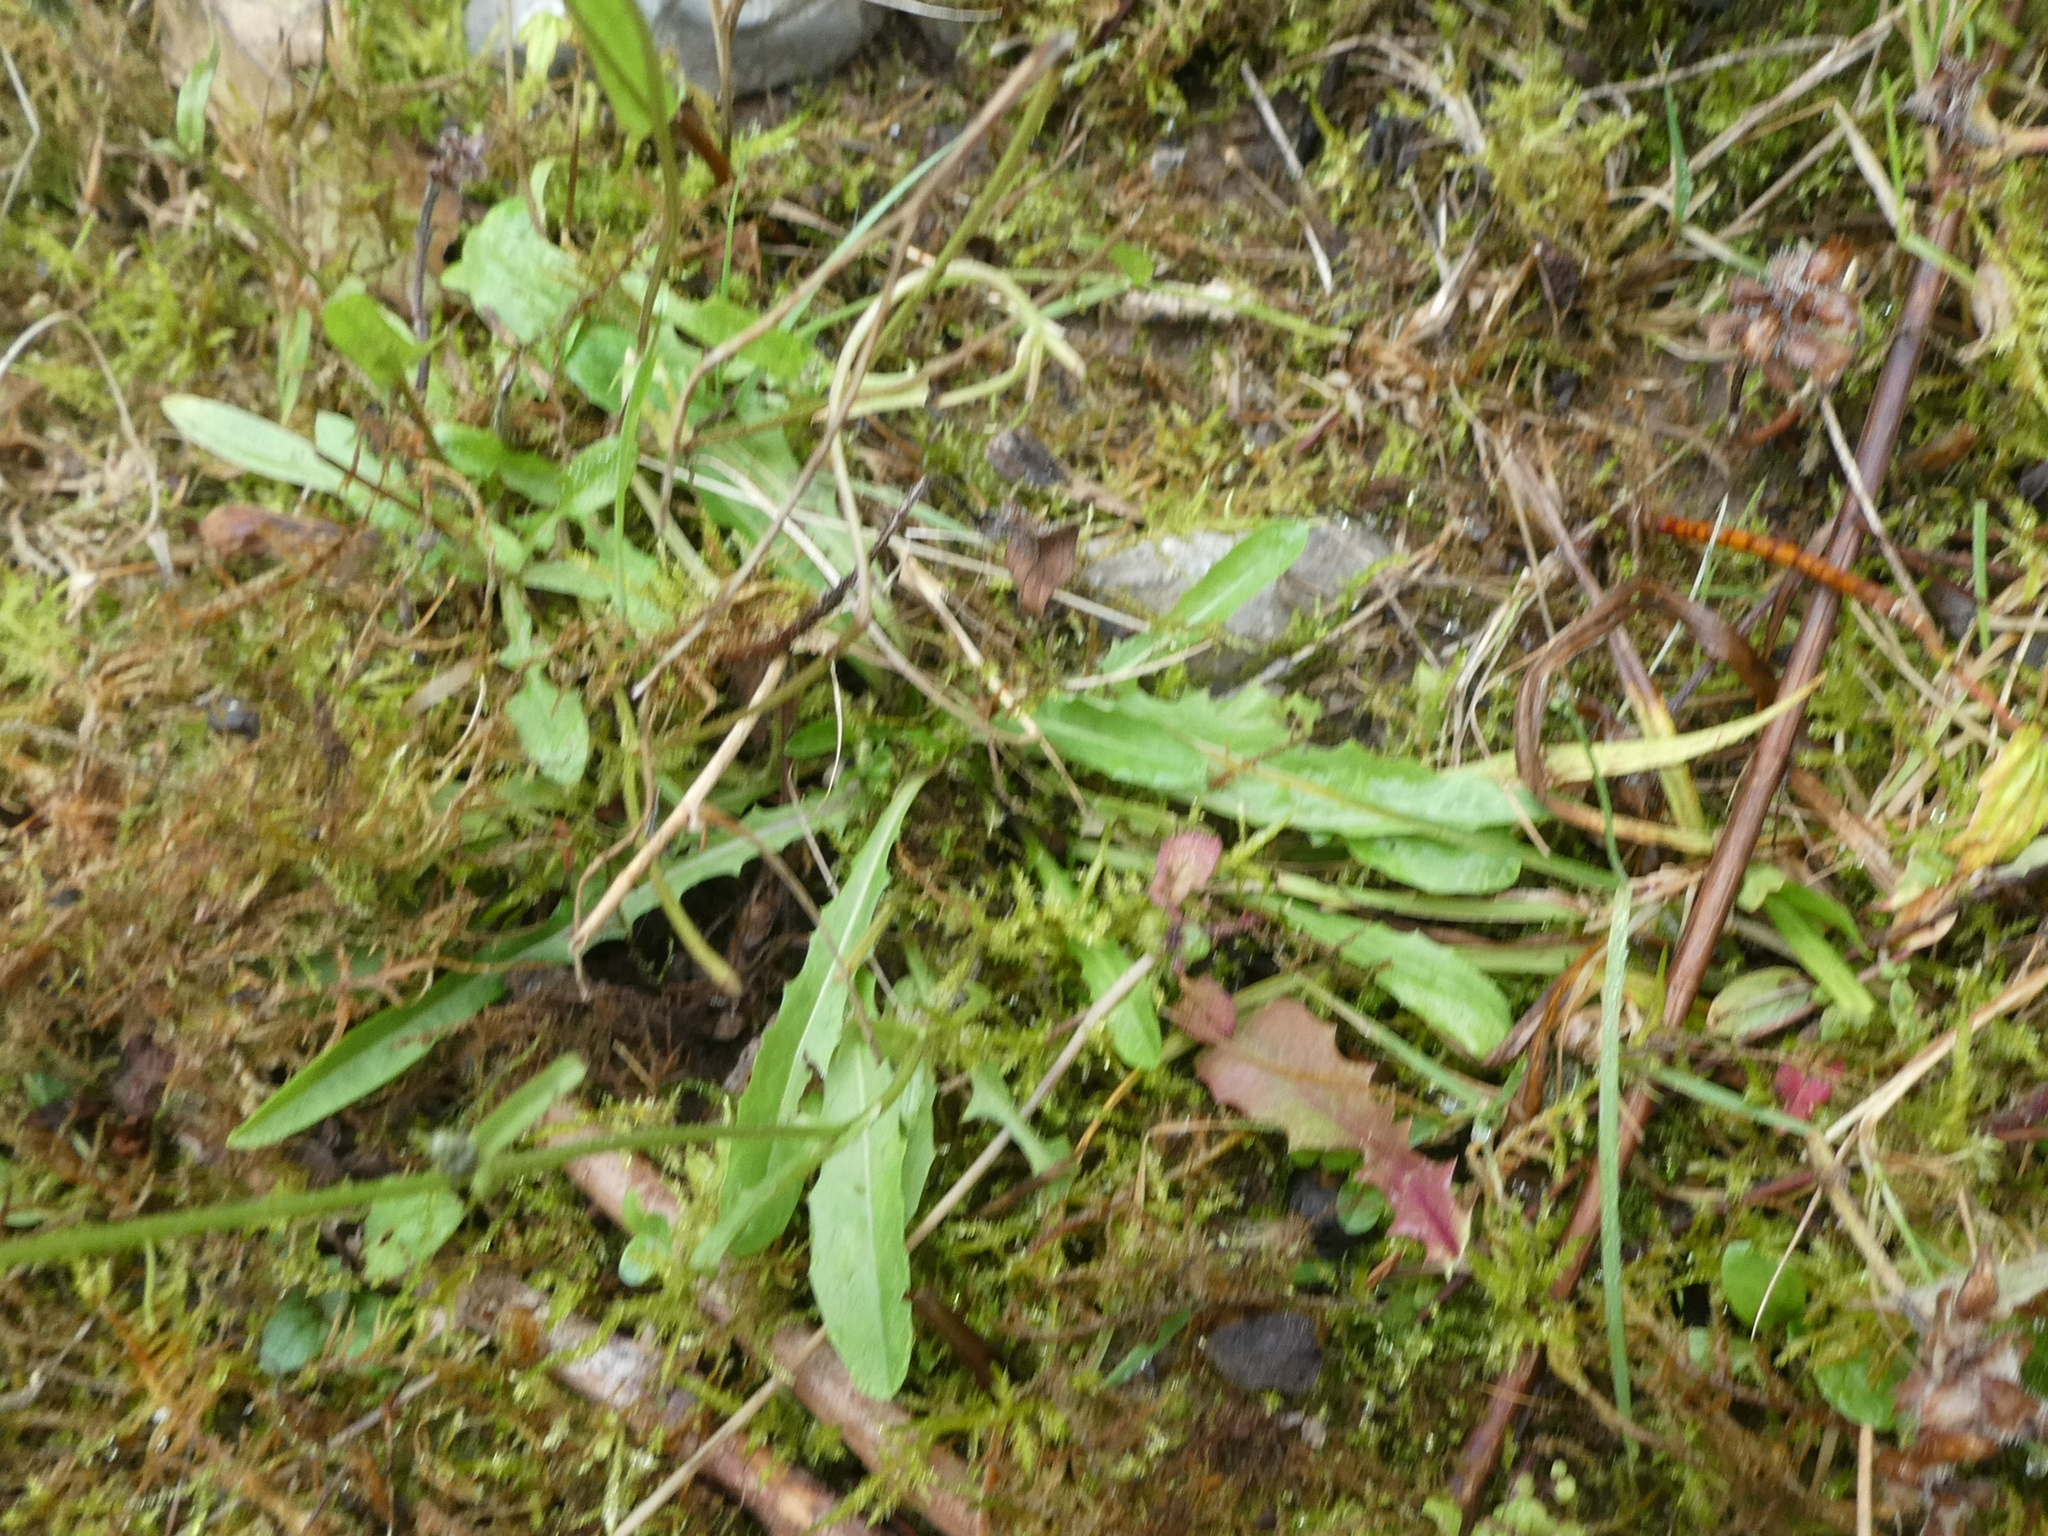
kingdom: Plantae
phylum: Tracheophyta
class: Magnoliopsida
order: Asterales
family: Asteraceae
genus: Crepis
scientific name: Crepis capillaris
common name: Smooth hawksbeard
